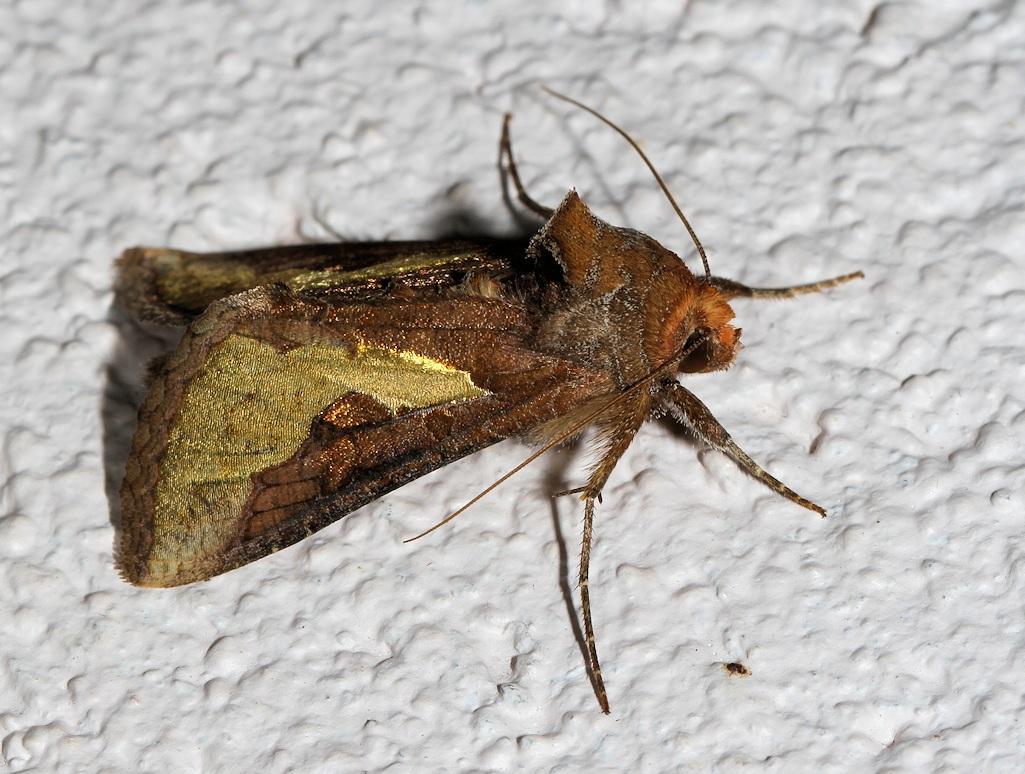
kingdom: Animalia
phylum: Arthropoda
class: Insecta
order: Lepidoptera
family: Noctuidae
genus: Thysanoplusia
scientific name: Thysanoplusia orichalcea
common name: Slender burnished brass, golden plusia
